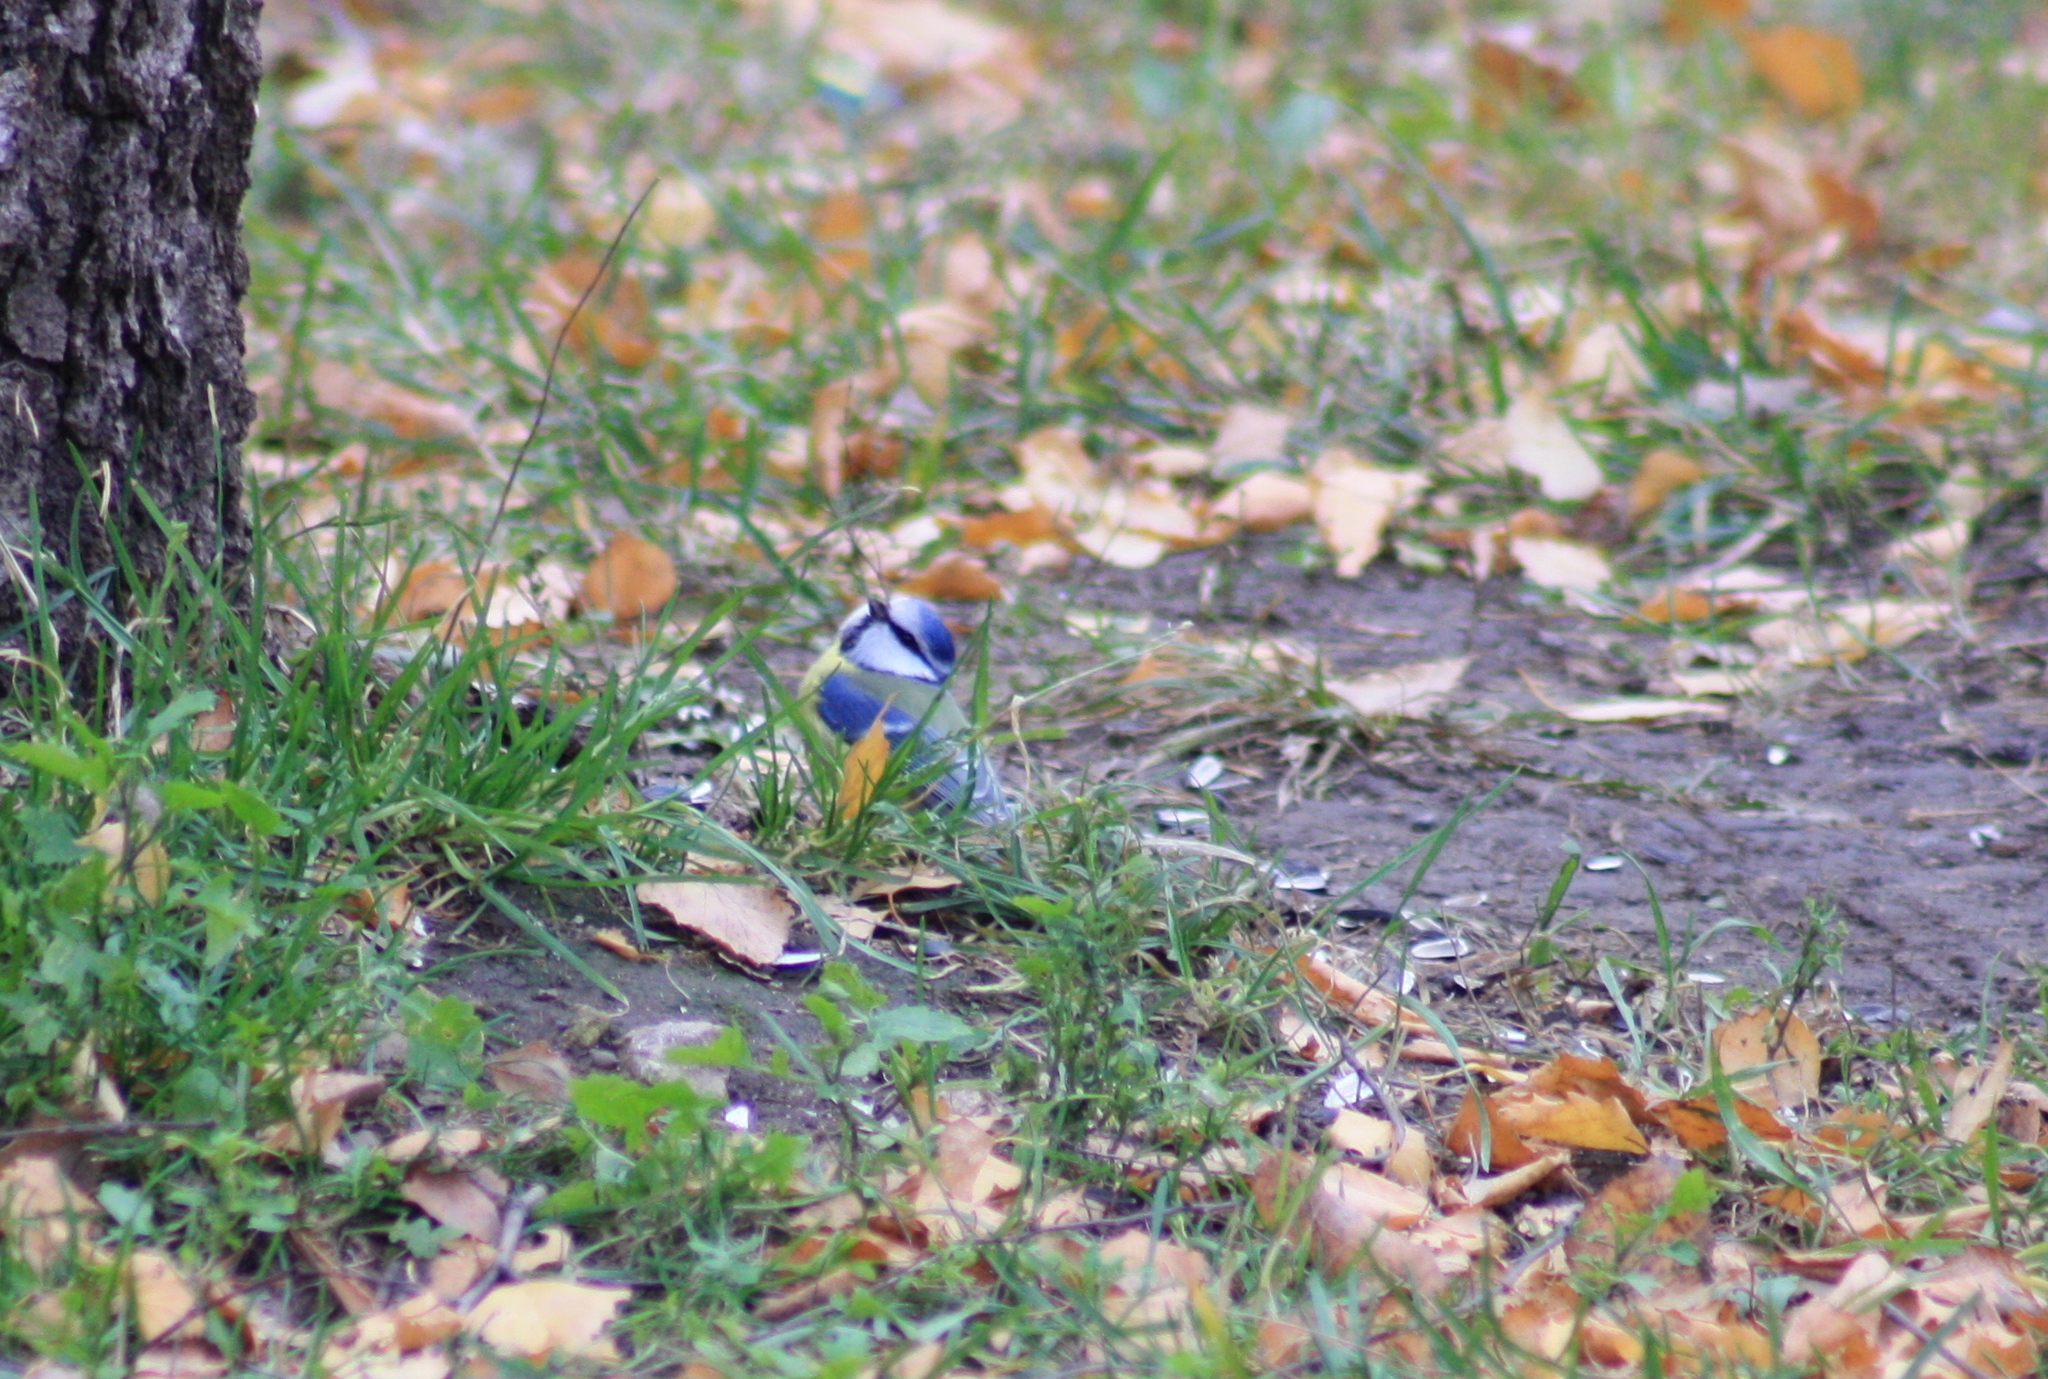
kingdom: Animalia
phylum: Chordata
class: Aves
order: Passeriformes
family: Paridae
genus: Cyanistes
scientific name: Cyanistes caeruleus
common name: Eurasian blue tit
